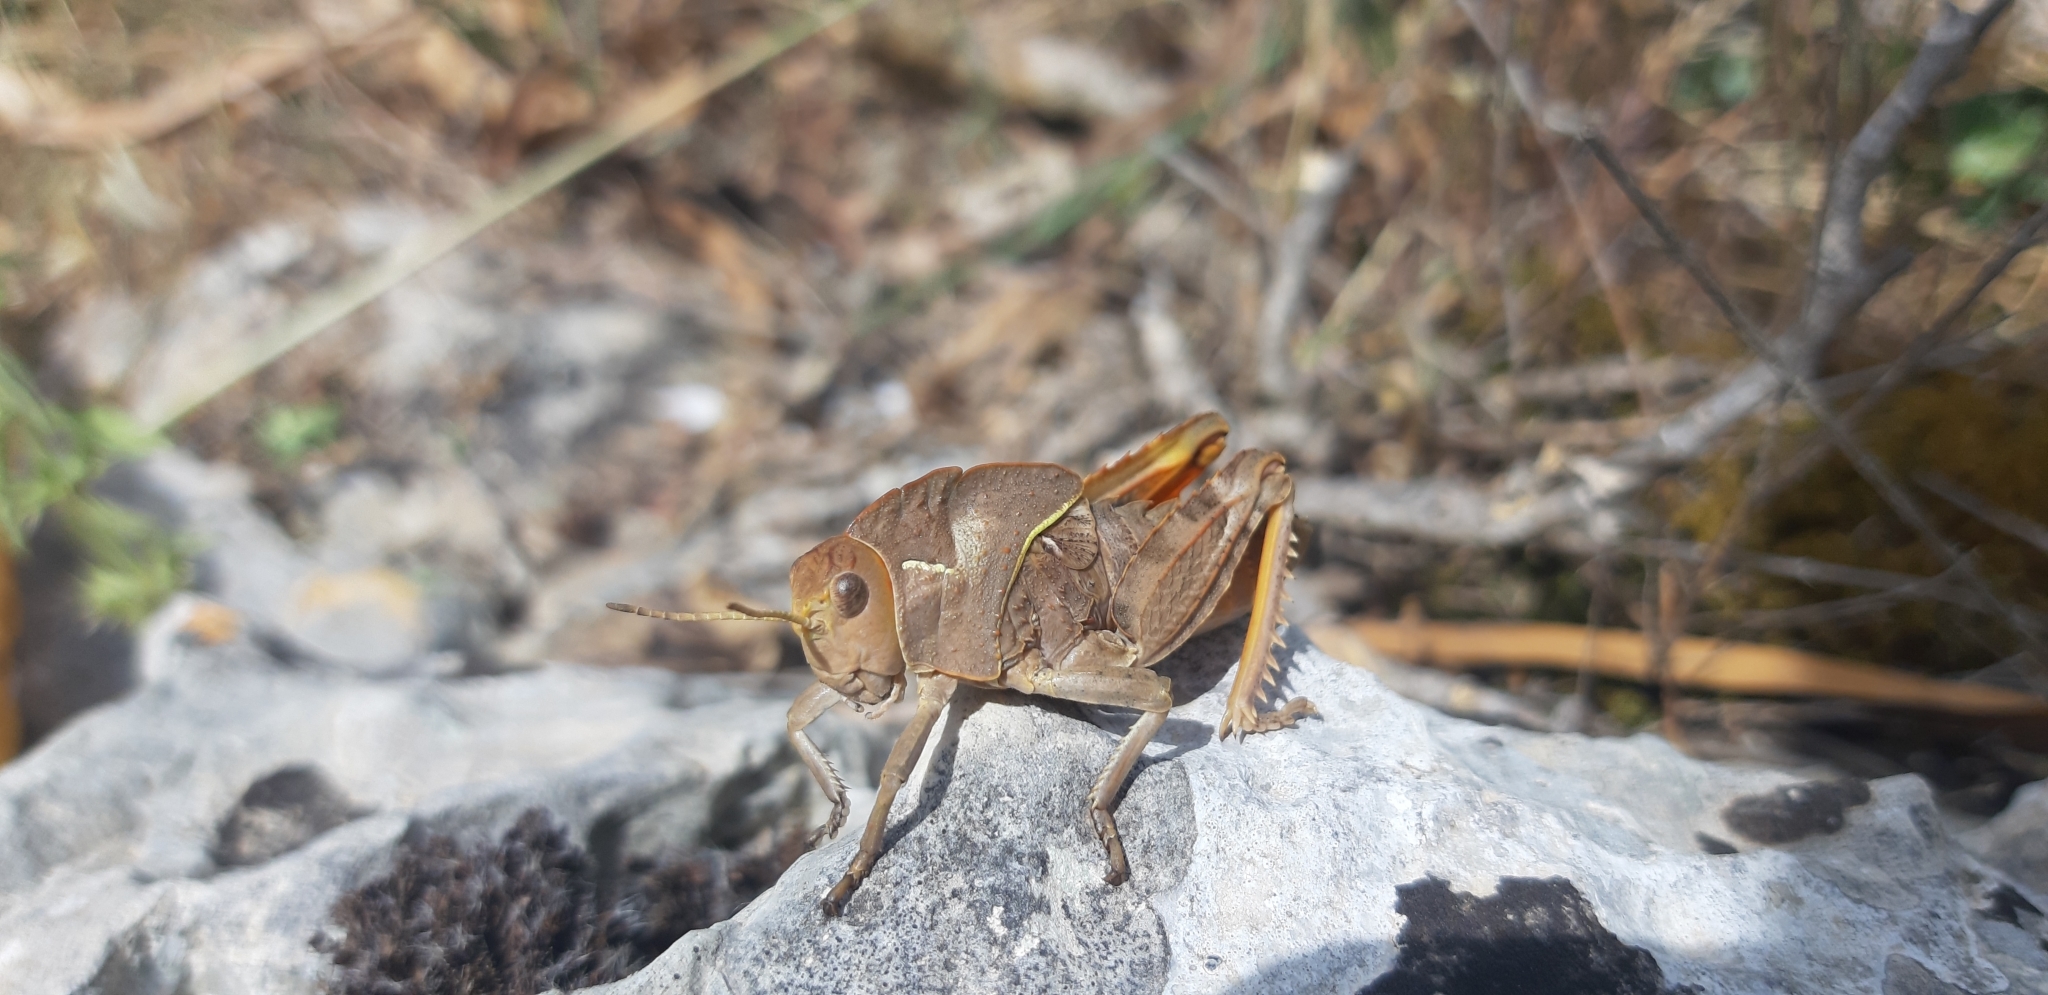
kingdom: Animalia
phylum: Arthropoda
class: Insecta
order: Orthoptera
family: Pamphagidae
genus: Prionotropis
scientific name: Prionotropis appula
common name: Apulian stone grasshopper
